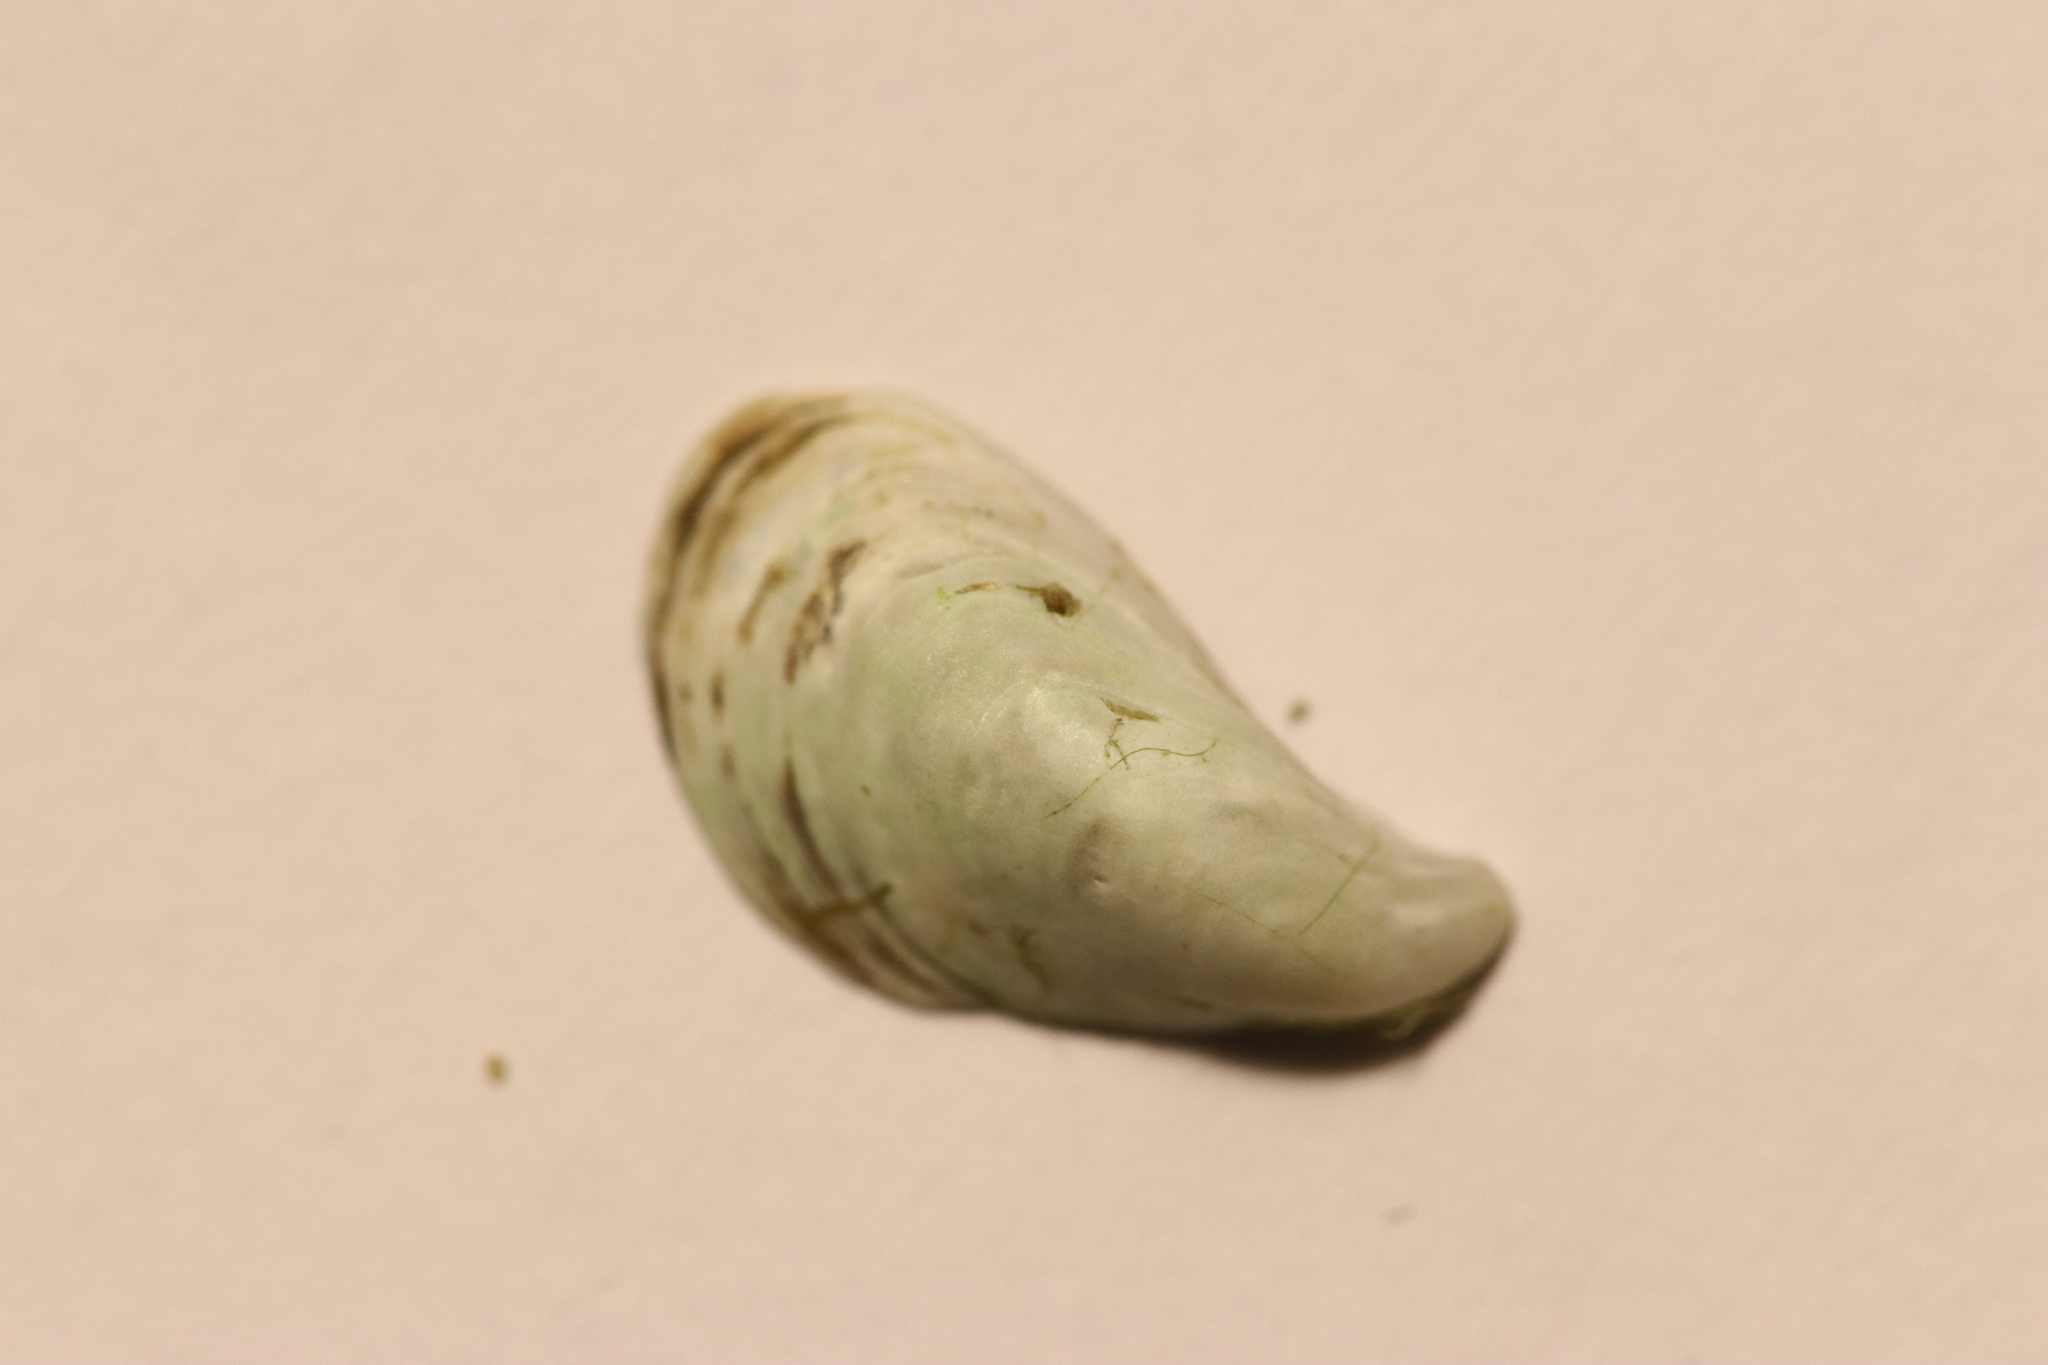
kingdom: Animalia
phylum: Mollusca
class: Bivalvia
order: Myida
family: Dreissenidae
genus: Dreissena
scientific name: Dreissena bugensis
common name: Quagga mussel
